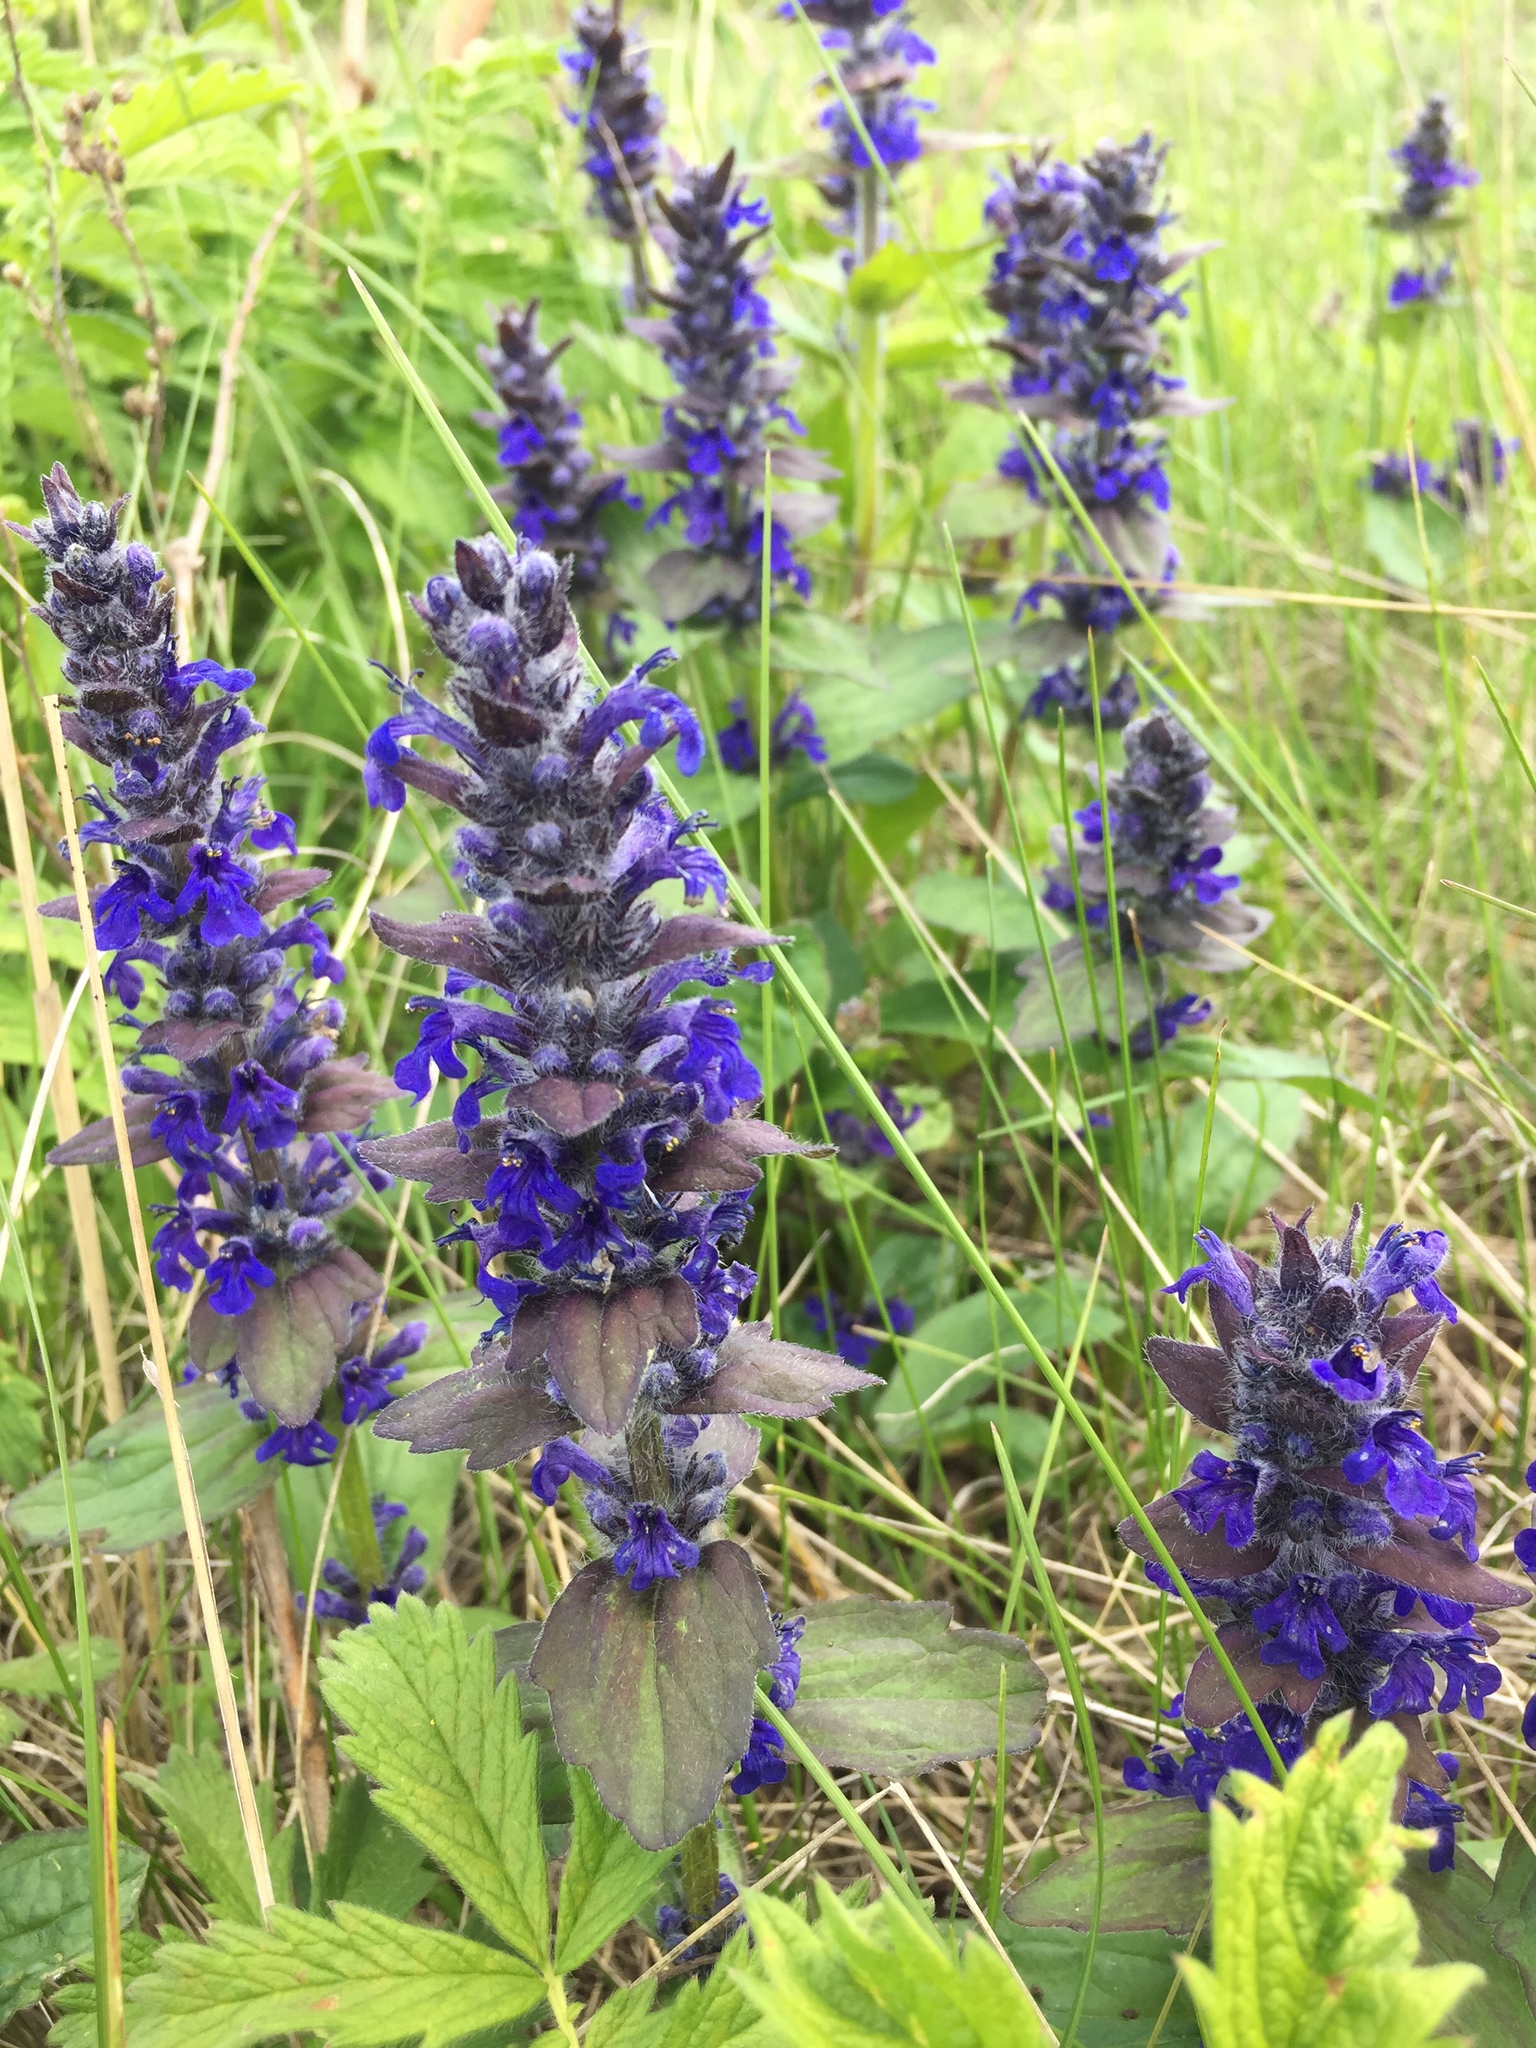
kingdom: Plantae
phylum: Tracheophyta
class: Magnoliopsida
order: Lamiales
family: Lamiaceae
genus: Ajuga
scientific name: Ajuga genevensis
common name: Blue bugle
